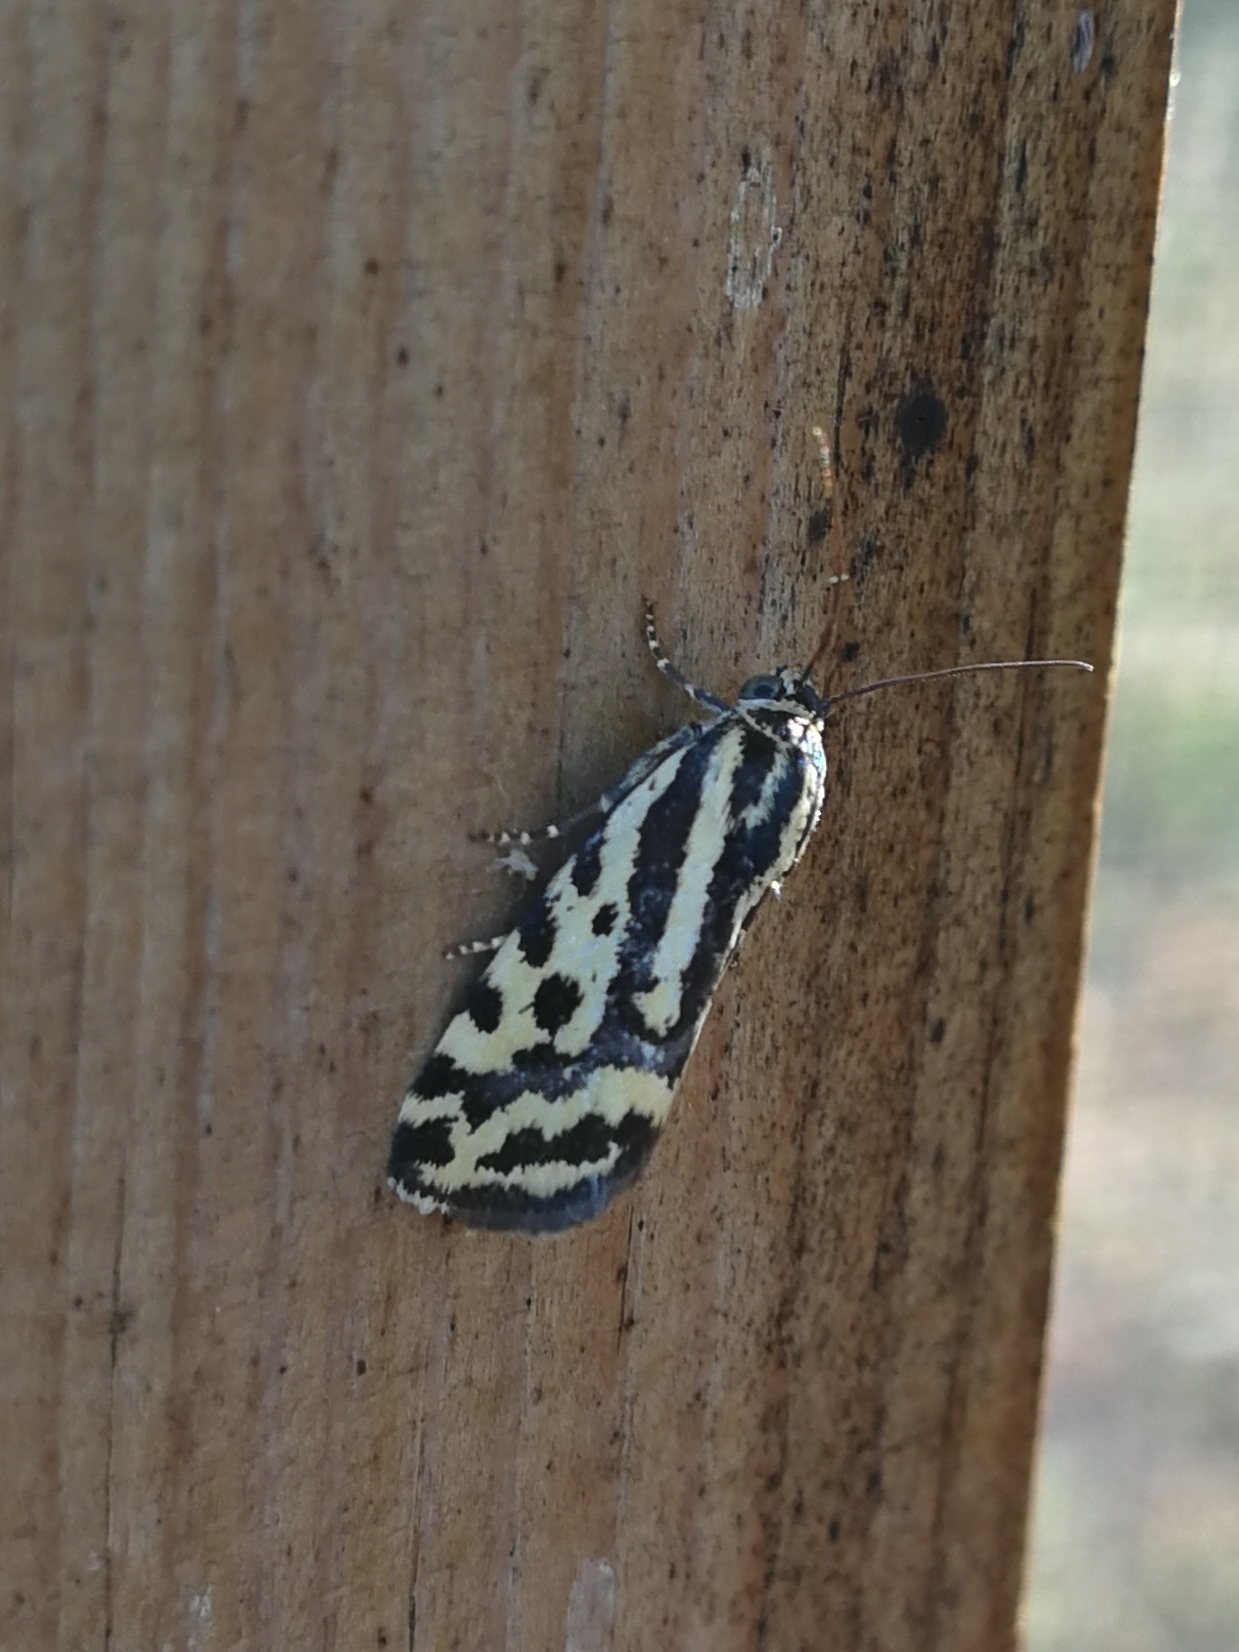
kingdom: Animalia
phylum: Arthropoda
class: Insecta
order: Lepidoptera
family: Noctuidae
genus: Acontia
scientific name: Acontia trabealis
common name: Spotted sulphur
